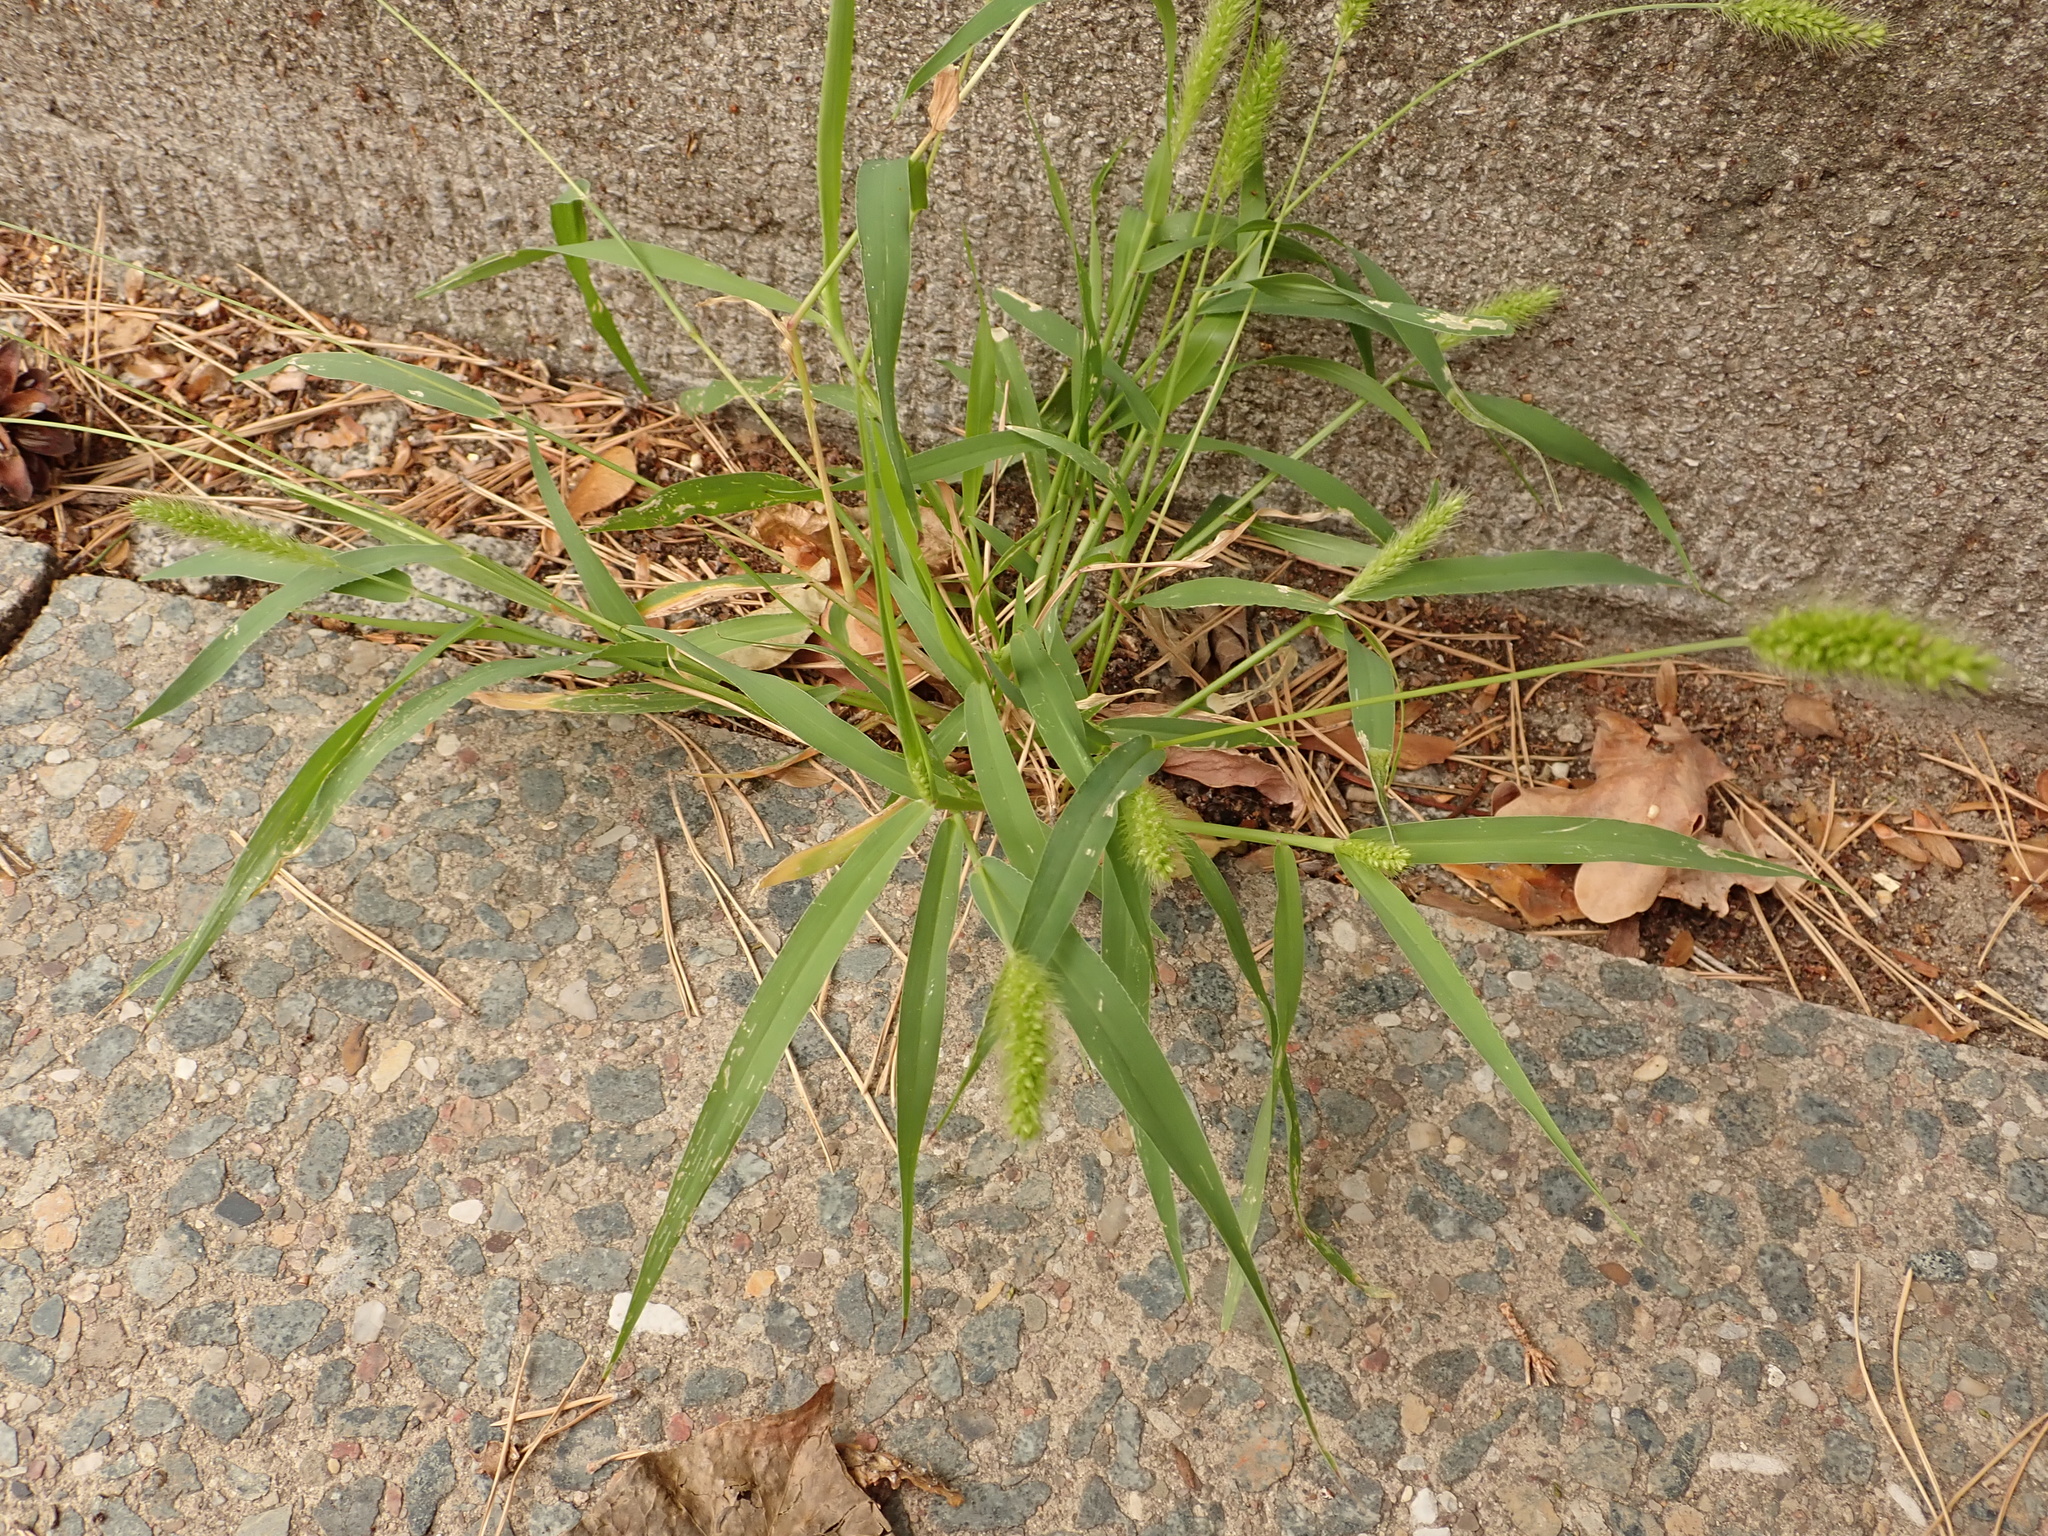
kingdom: Plantae
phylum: Tracheophyta
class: Liliopsida
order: Poales
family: Poaceae
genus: Setaria
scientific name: Setaria viridis
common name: Green bristlegrass
